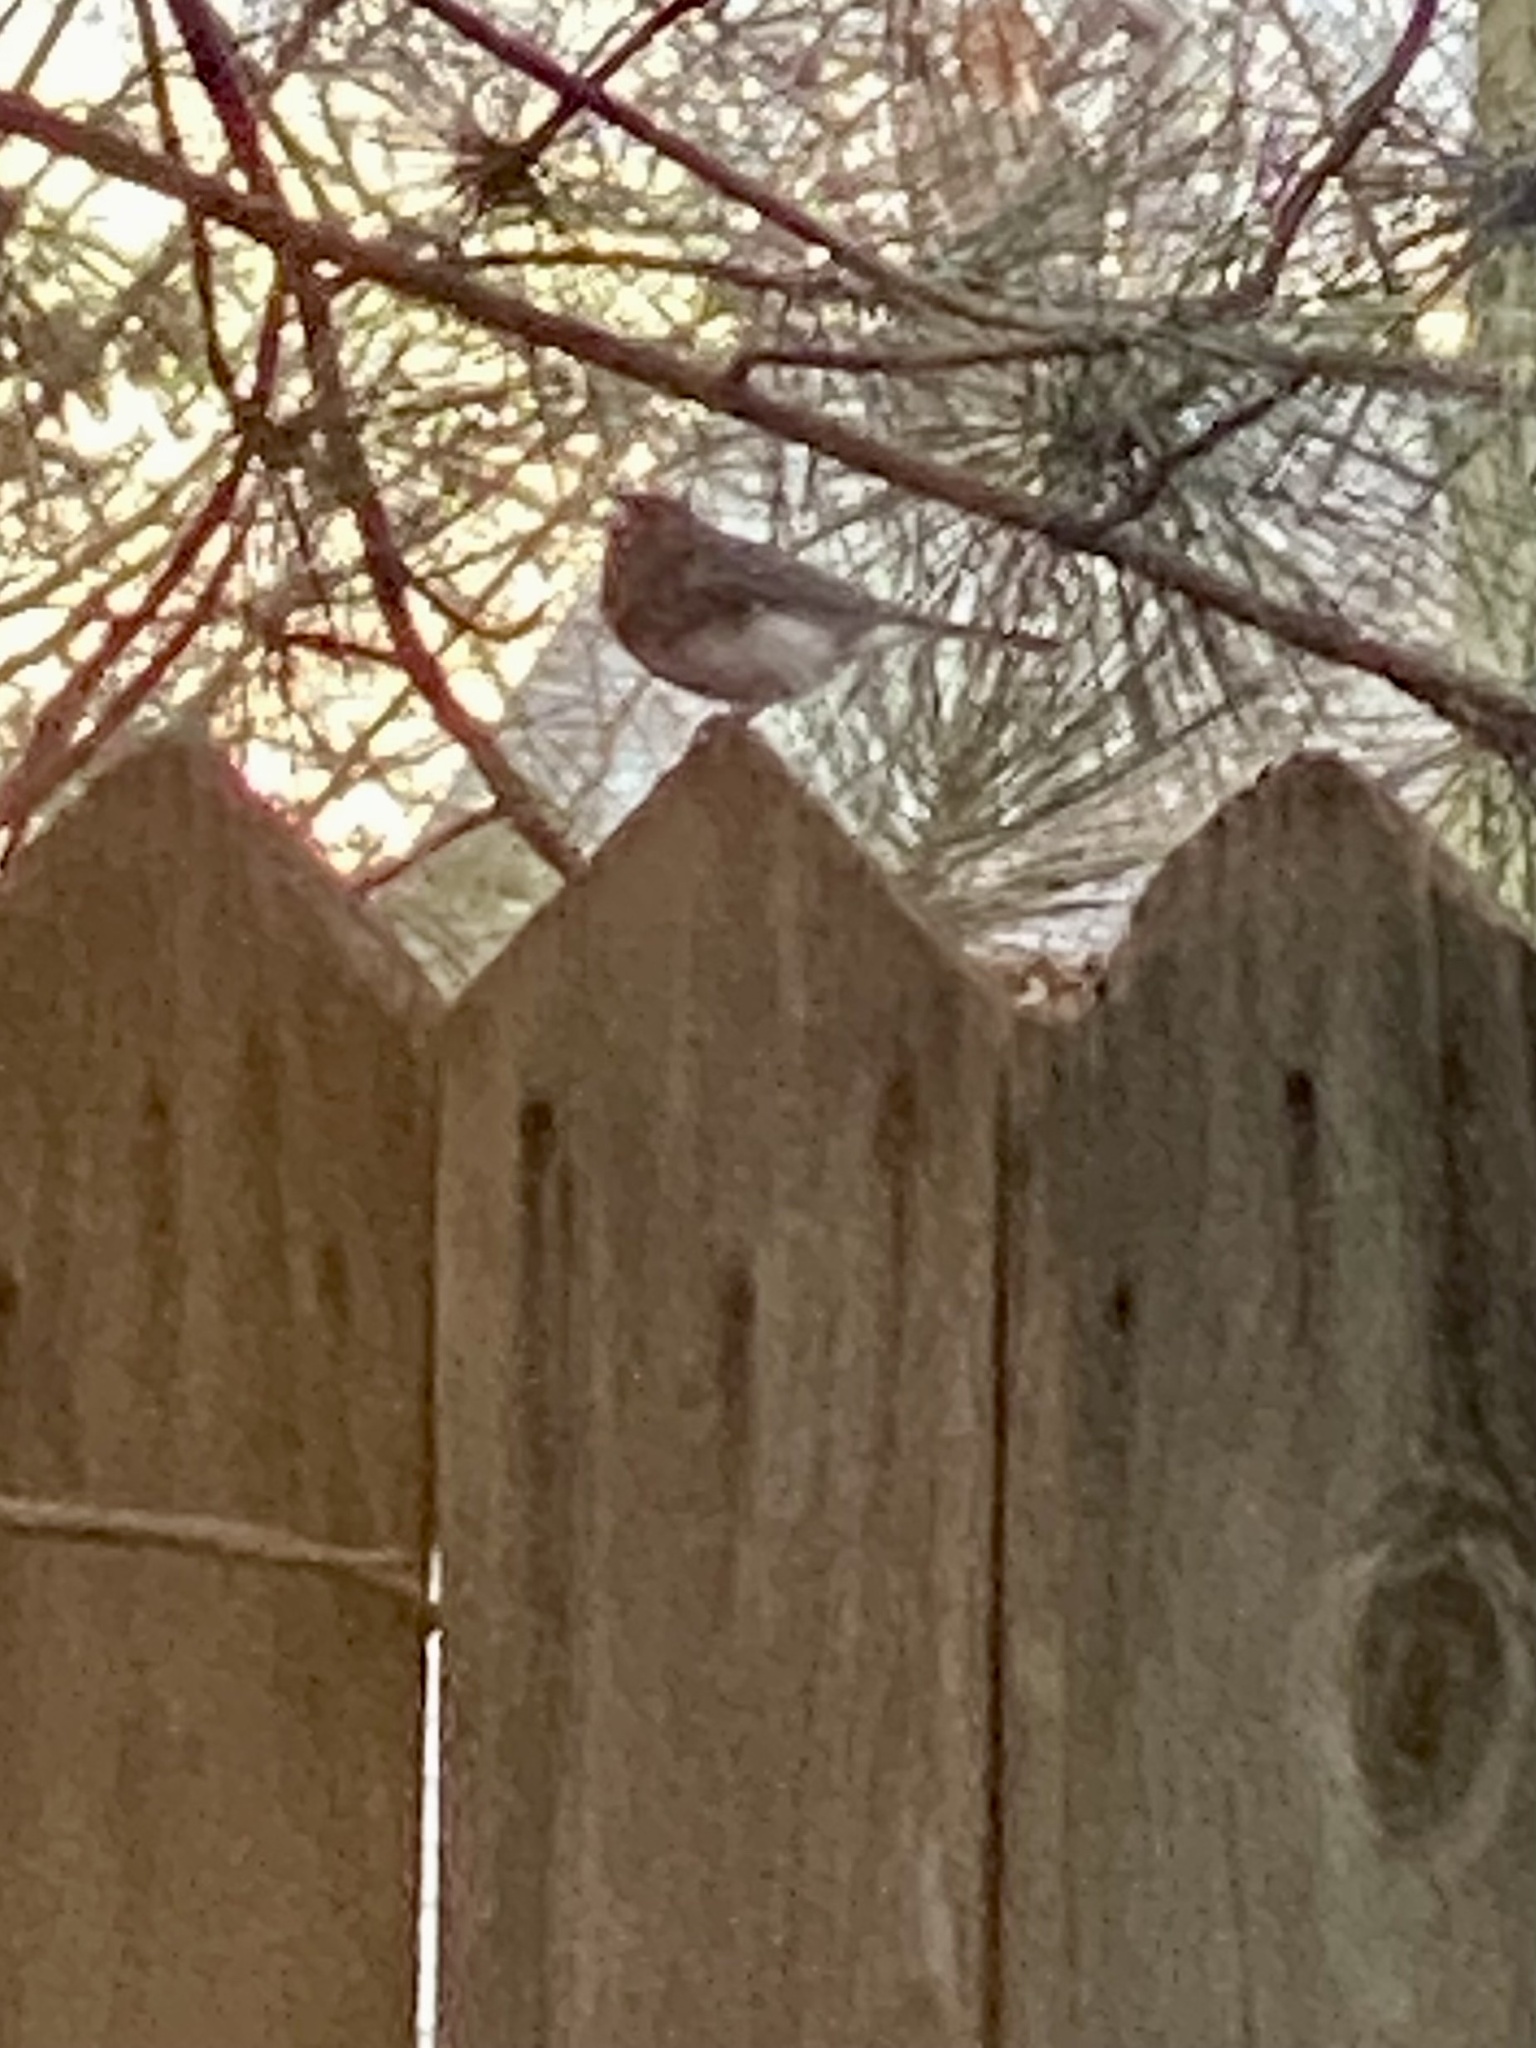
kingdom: Animalia
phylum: Chordata
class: Aves
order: Passeriformes
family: Passerellidae
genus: Junco
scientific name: Junco hyemalis
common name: Dark-eyed junco
